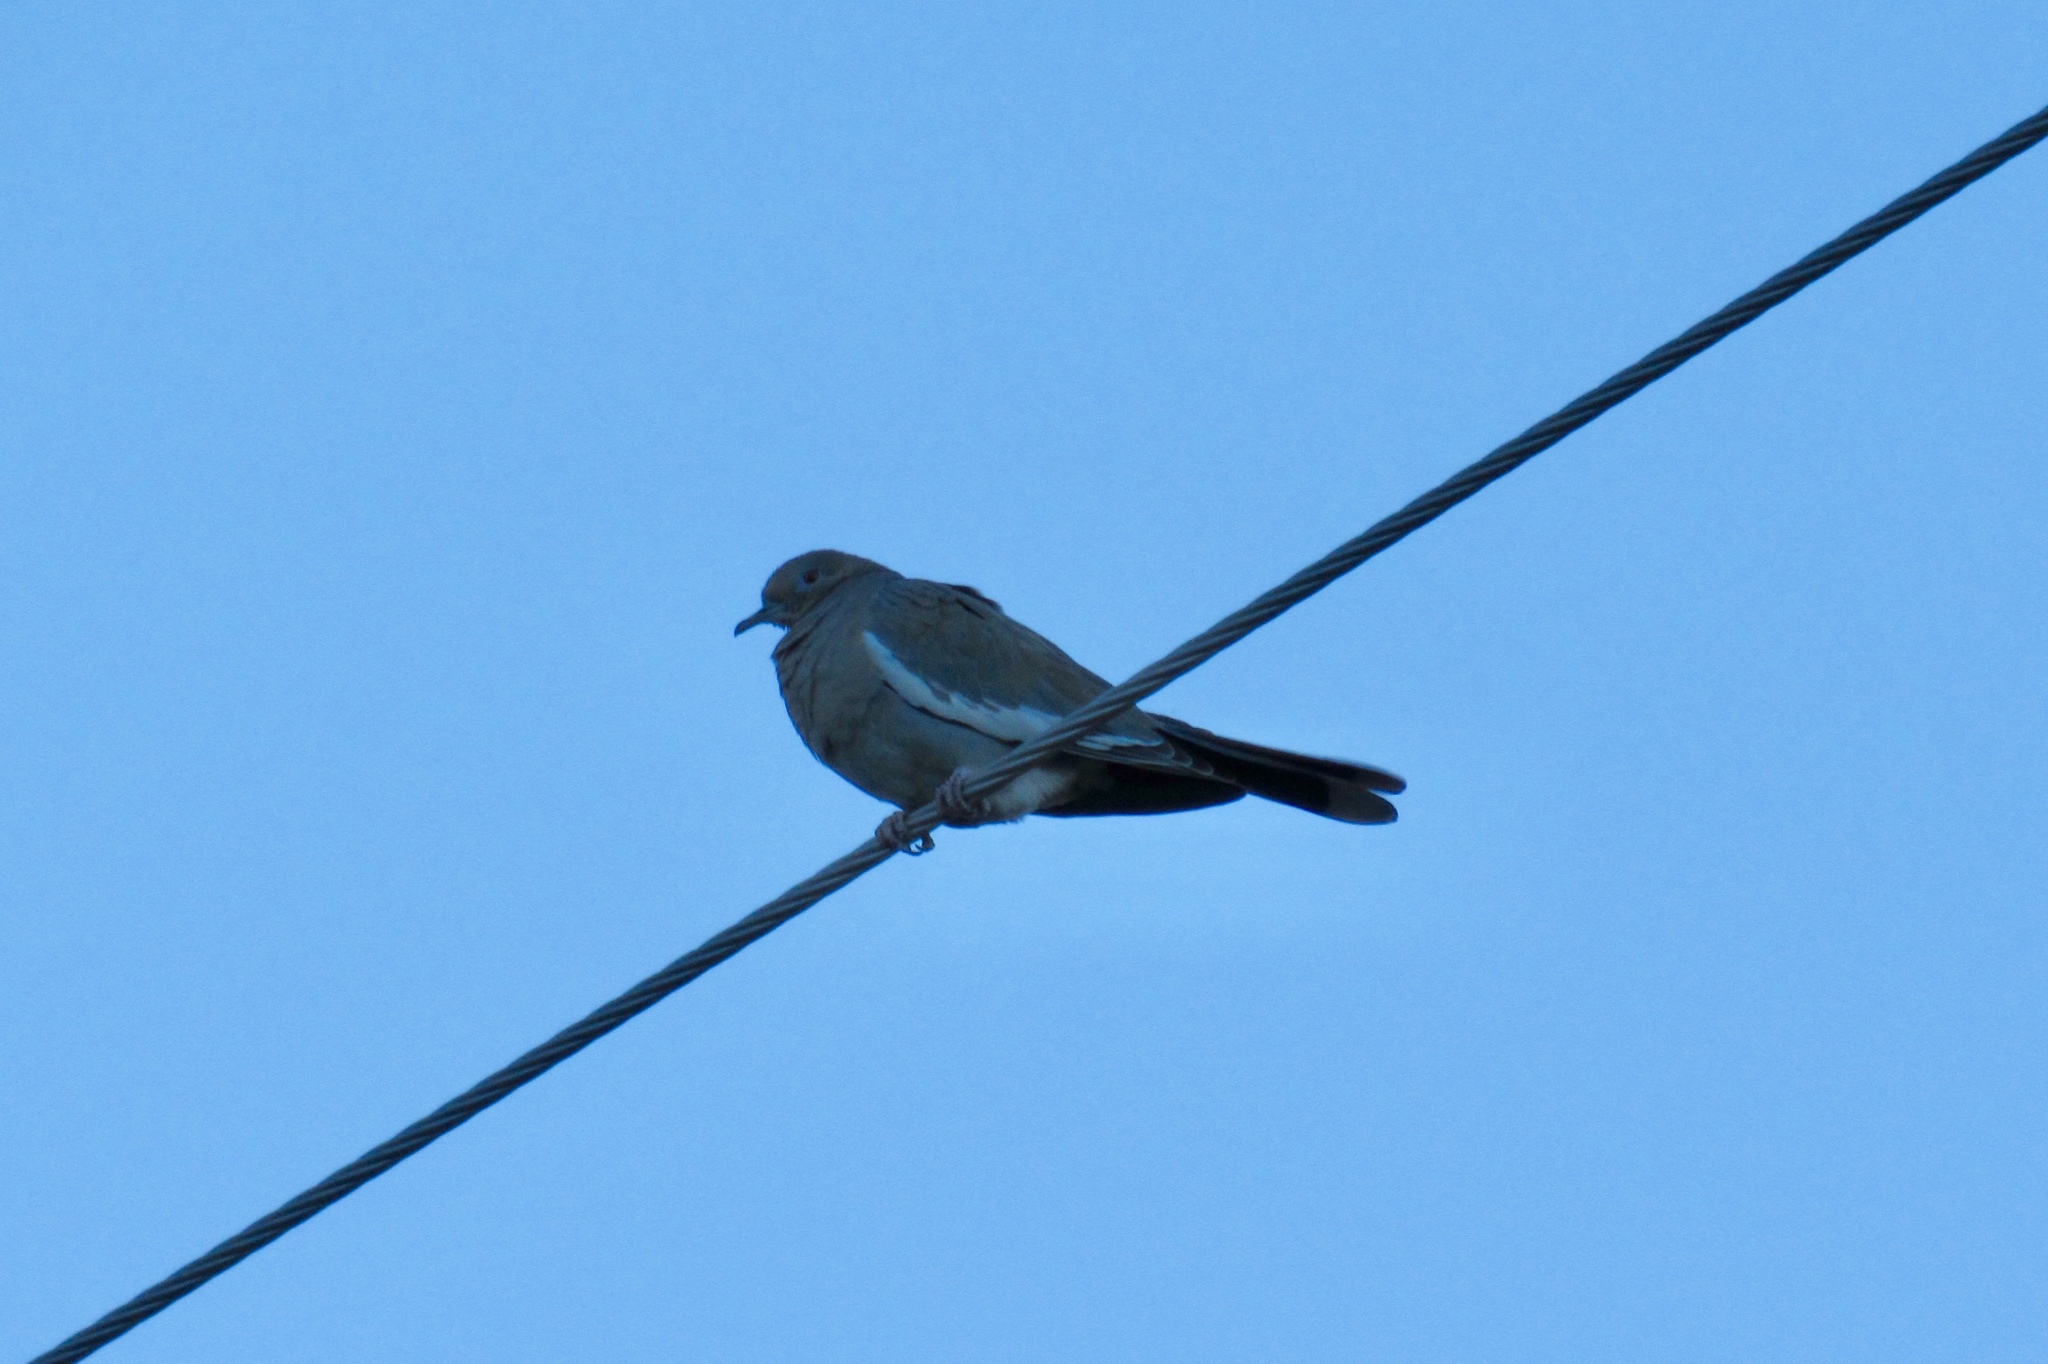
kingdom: Animalia
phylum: Chordata
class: Aves
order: Columbiformes
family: Columbidae
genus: Zenaida
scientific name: Zenaida asiatica
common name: White-winged dove
